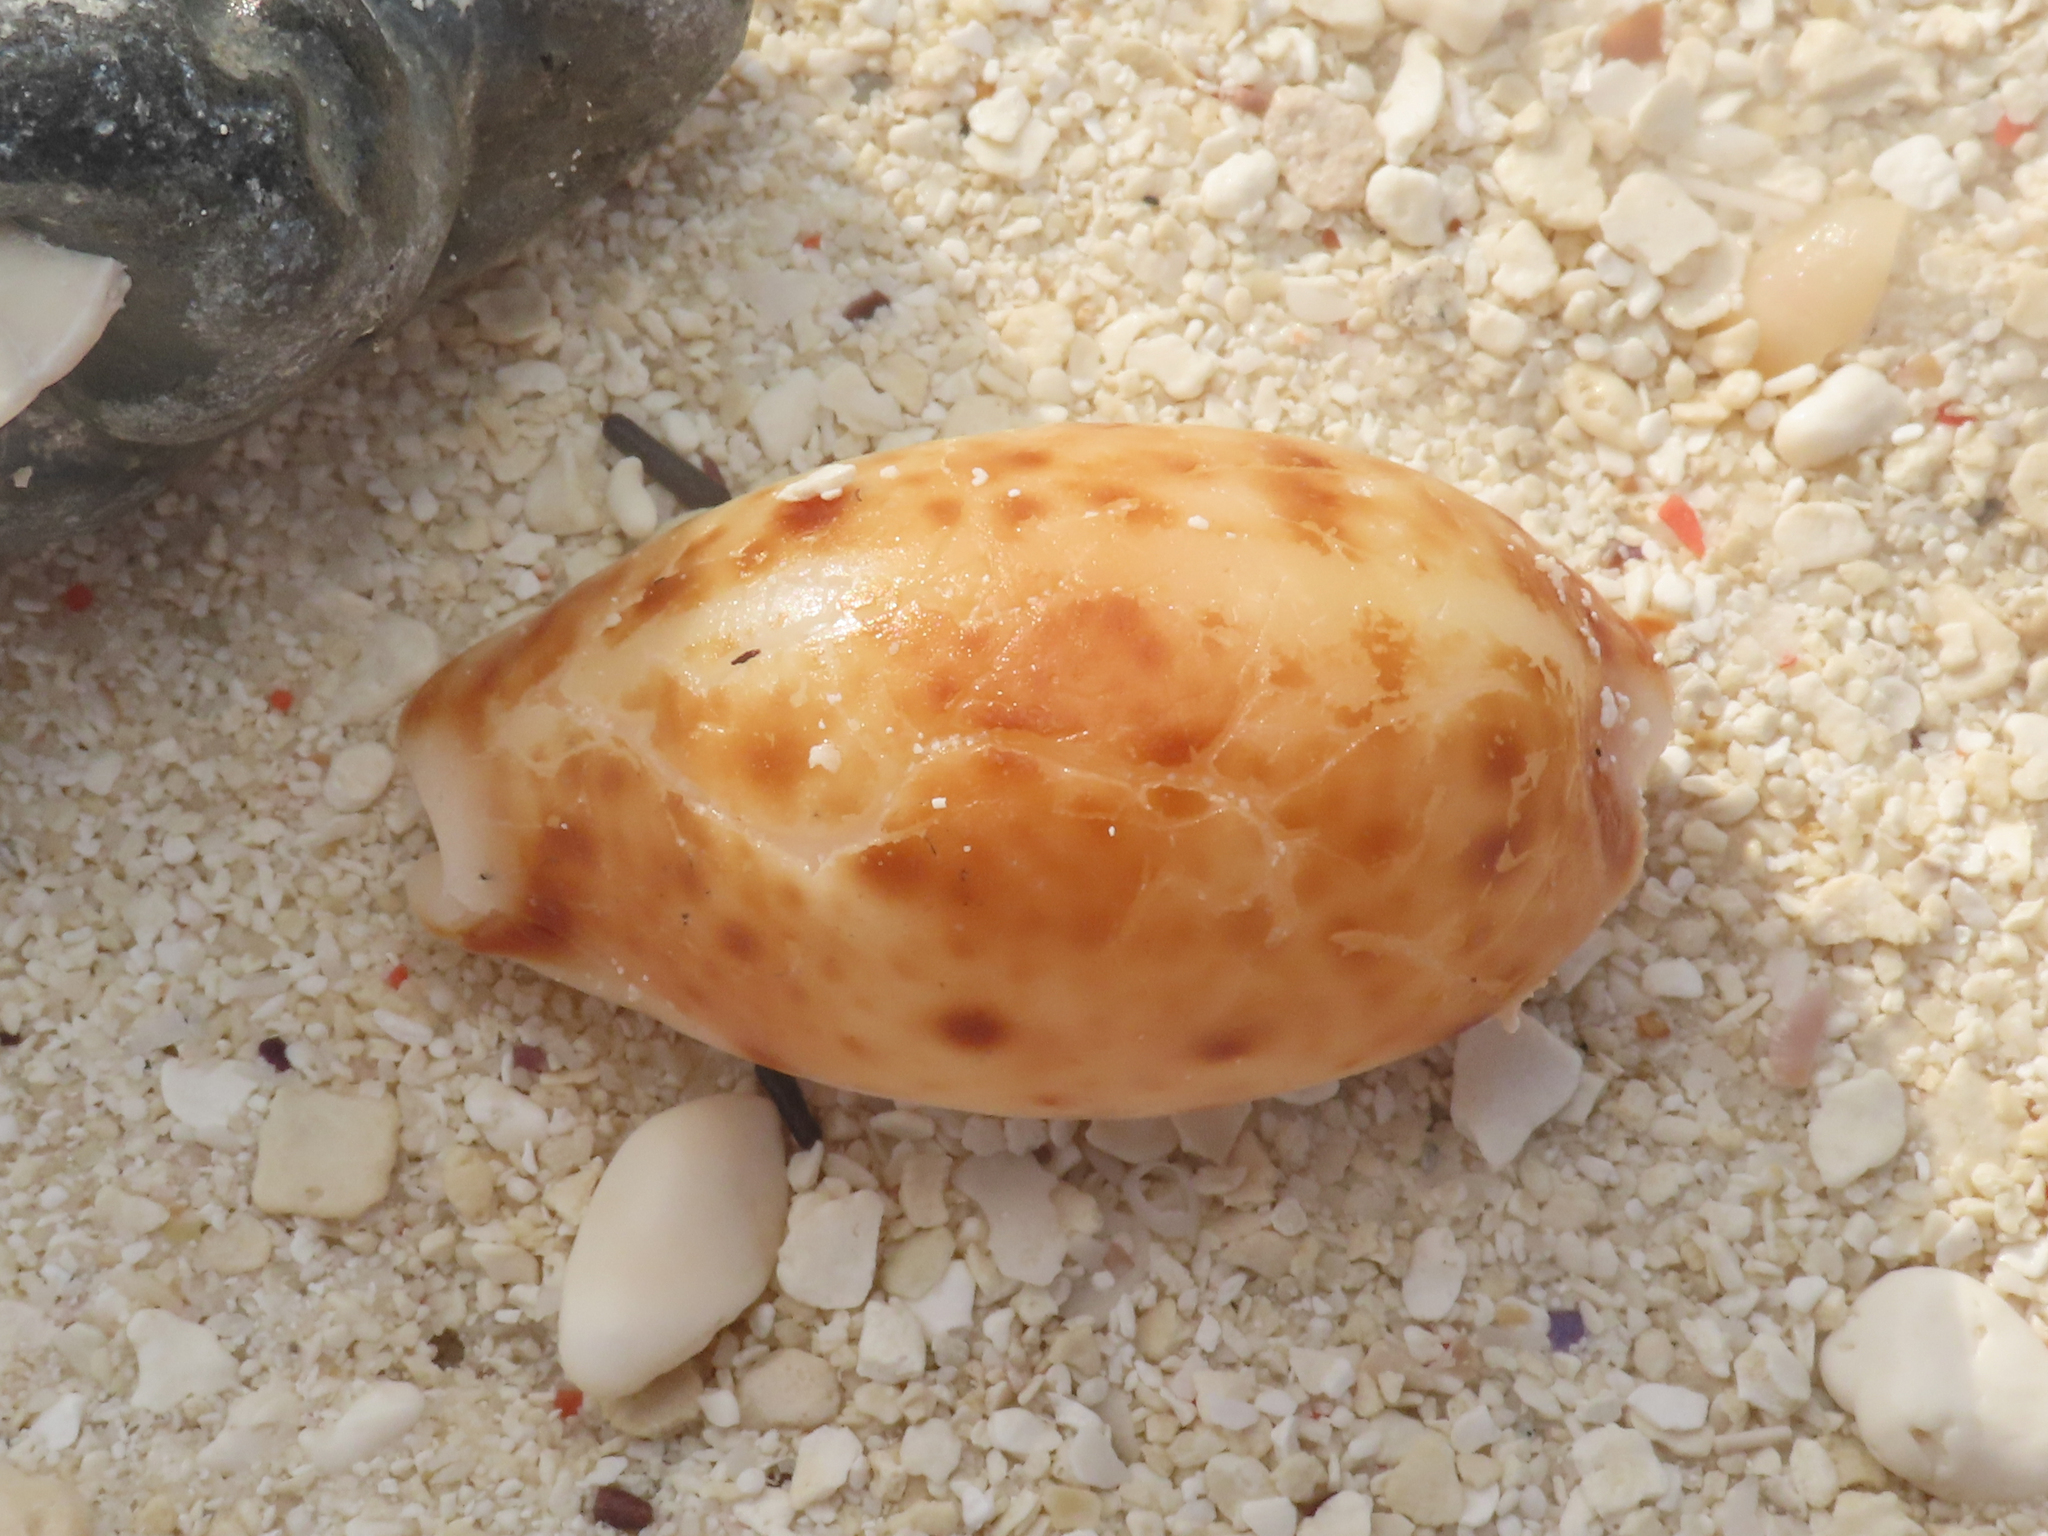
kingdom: Animalia
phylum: Mollusca
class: Gastropoda
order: Littorinimorpha
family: Cypraeidae
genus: Lyncina
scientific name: Lyncina lynx
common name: Bobcat cowrie
